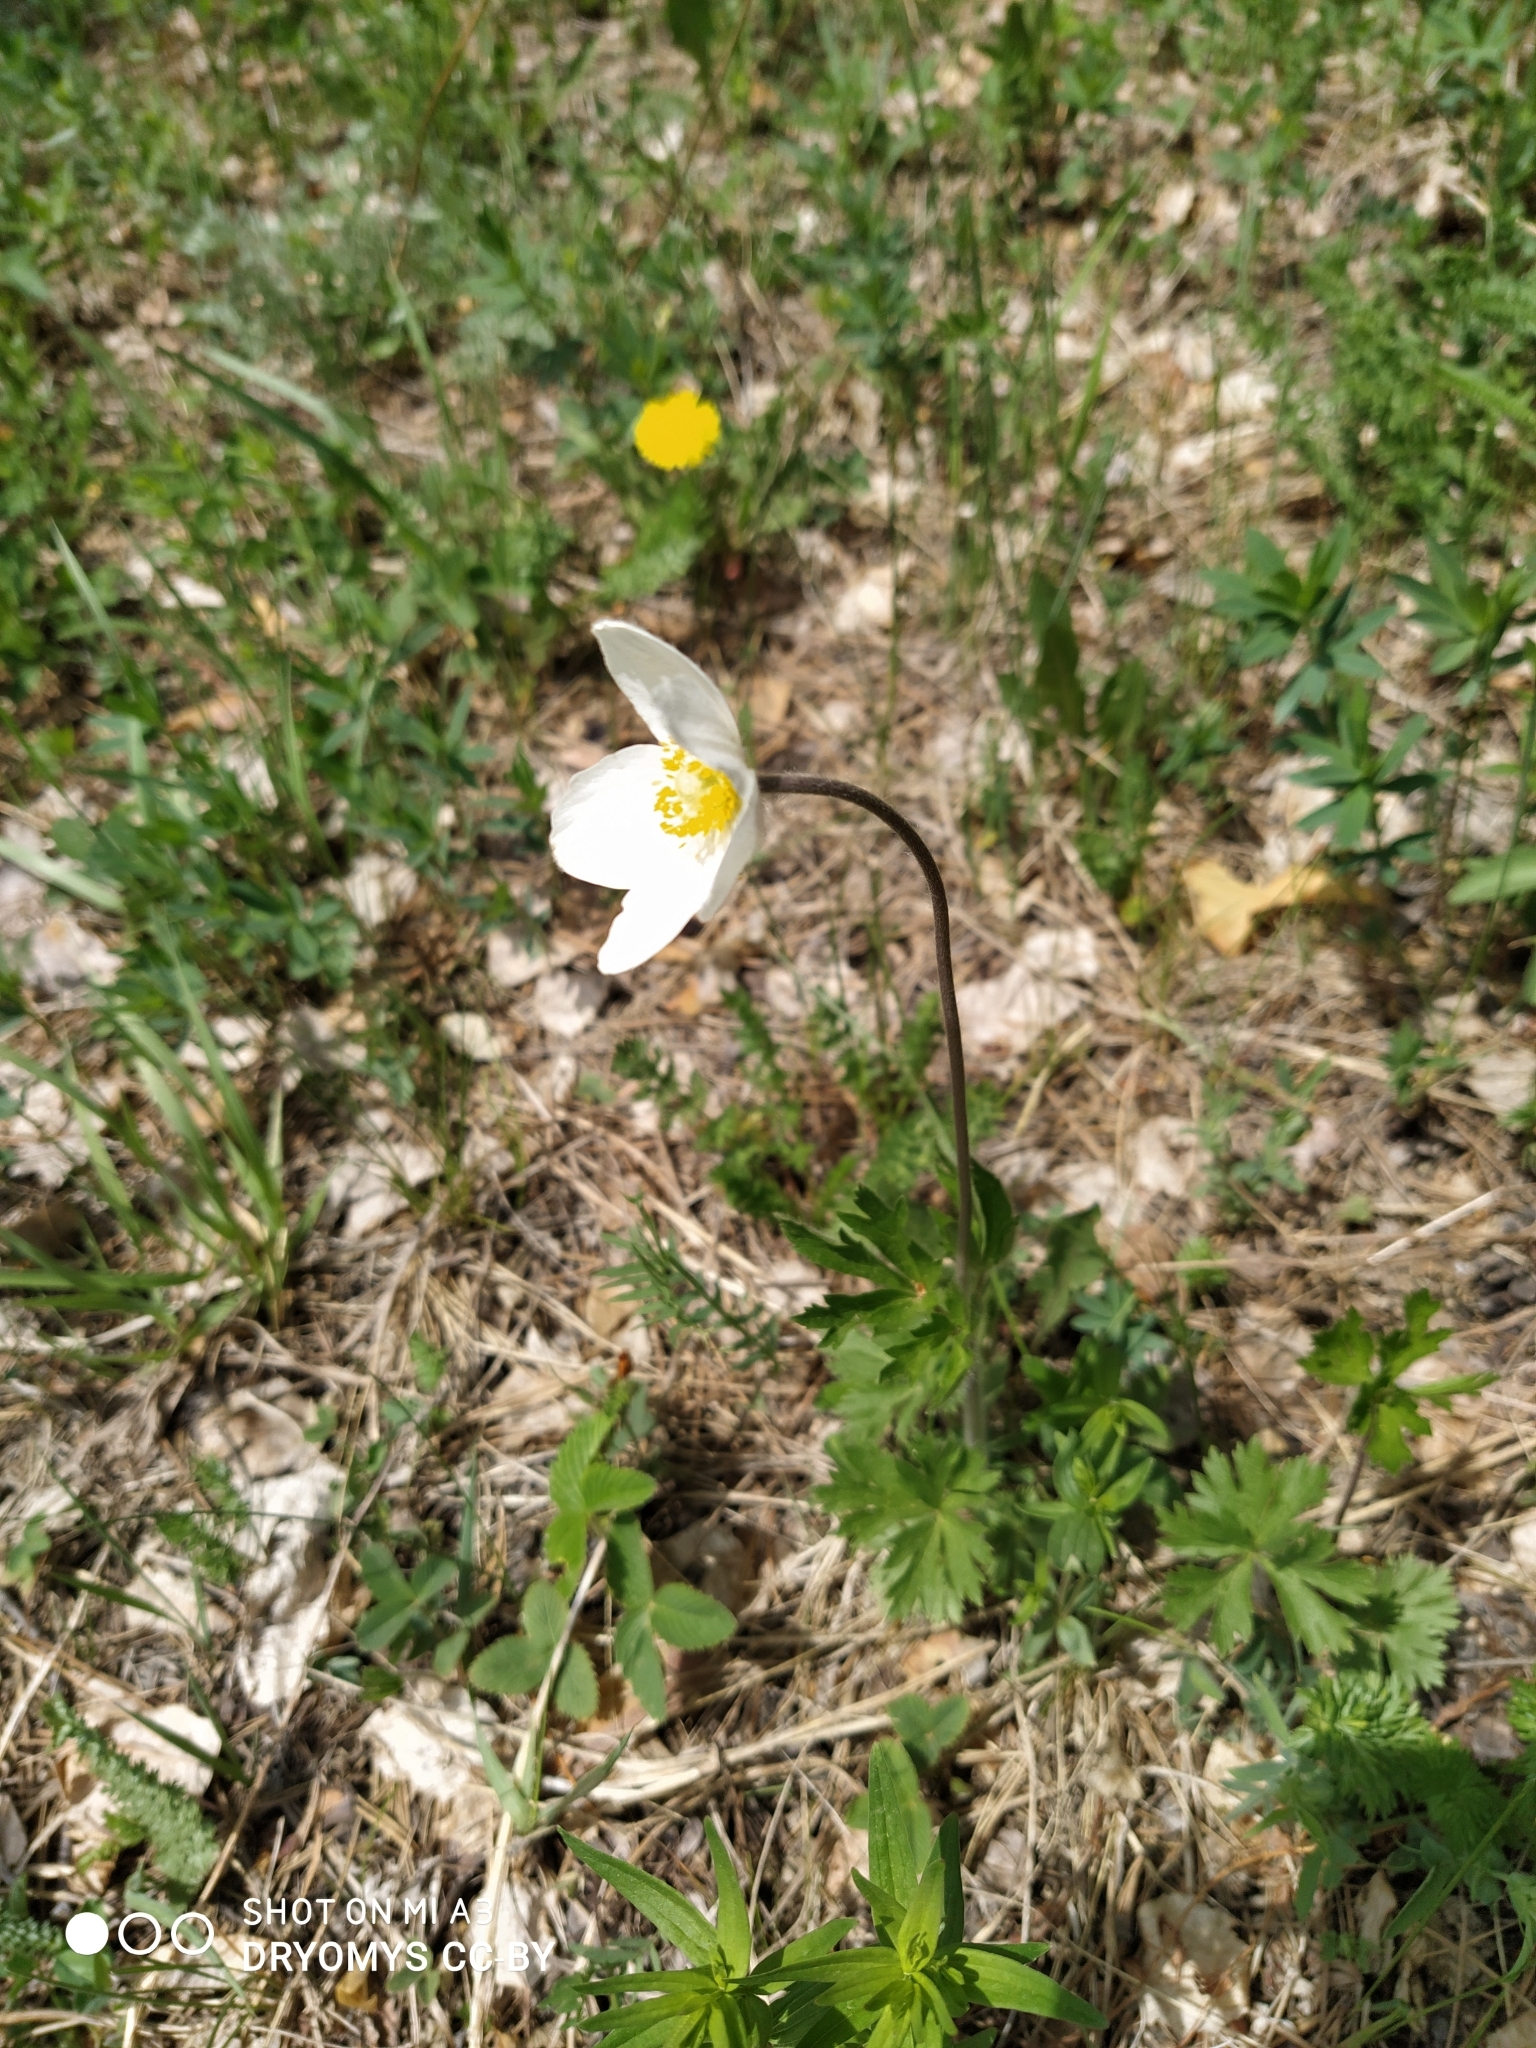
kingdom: Plantae
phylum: Tracheophyta
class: Magnoliopsida
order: Ranunculales
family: Ranunculaceae
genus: Anemone
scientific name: Anemone sylvestris
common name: Snowdrop anemone
